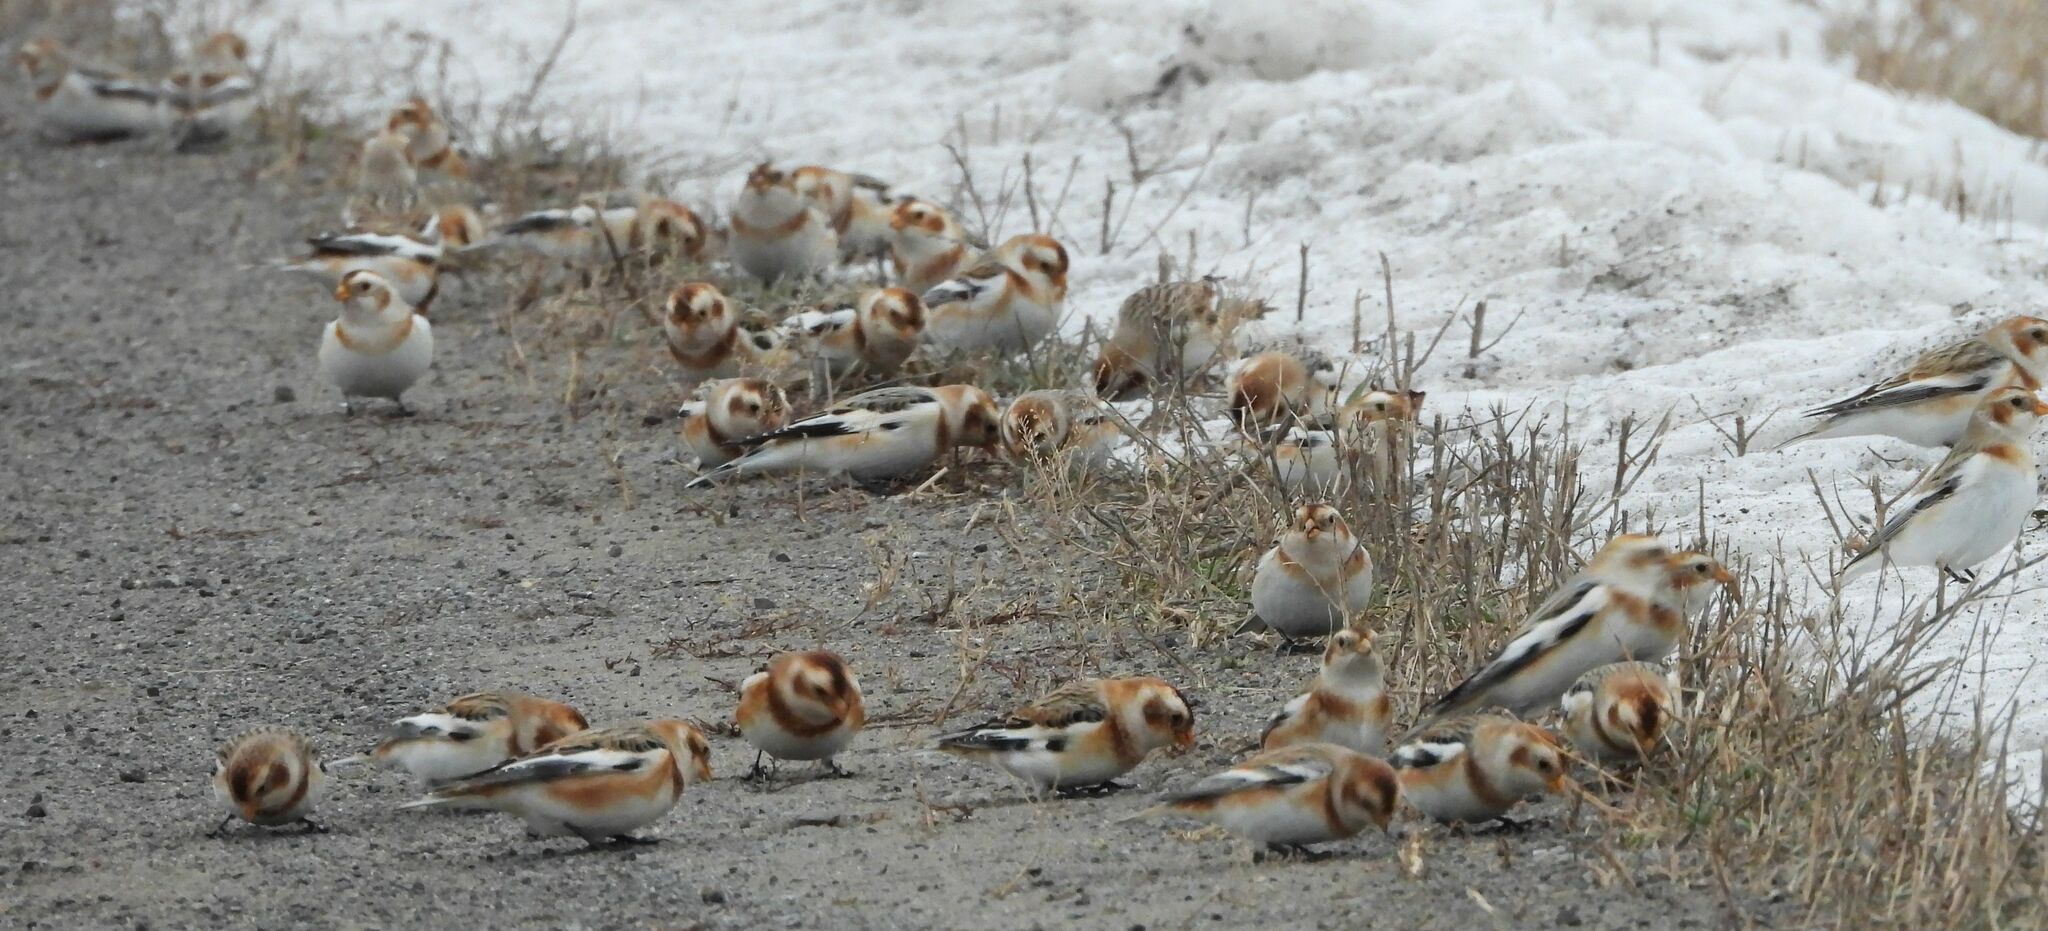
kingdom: Animalia
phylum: Chordata
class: Aves
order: Passeriformes
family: Calcariidae
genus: Plectrophenax
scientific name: Plectrophenax nivalis
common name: Snow bunting
